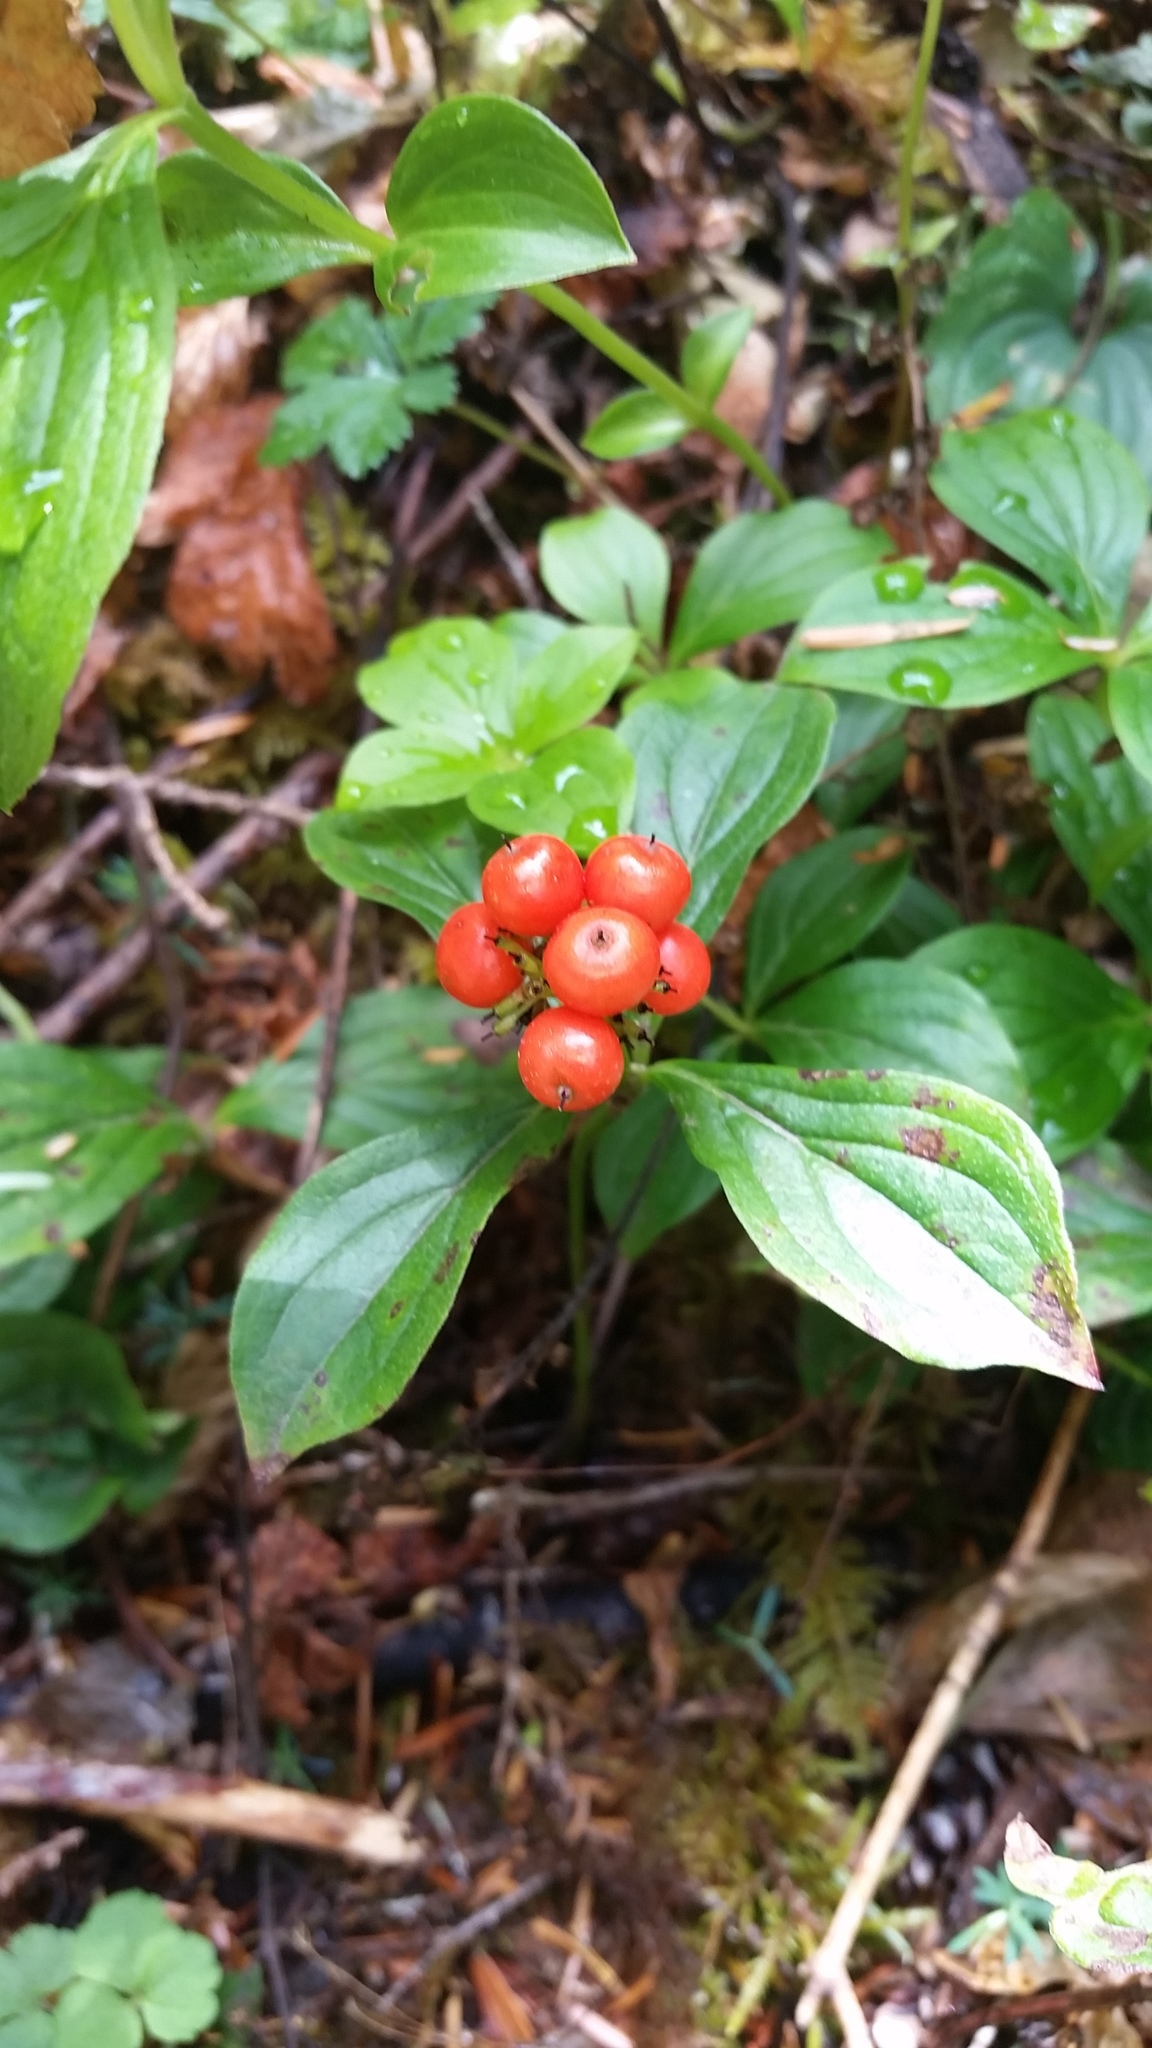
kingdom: Plantae
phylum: Tracheophyta
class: Magnoliopsida
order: Cornales
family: Cornaceae
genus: Cornus
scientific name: Cornus unalaschkensis
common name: Alaska bunchberry
